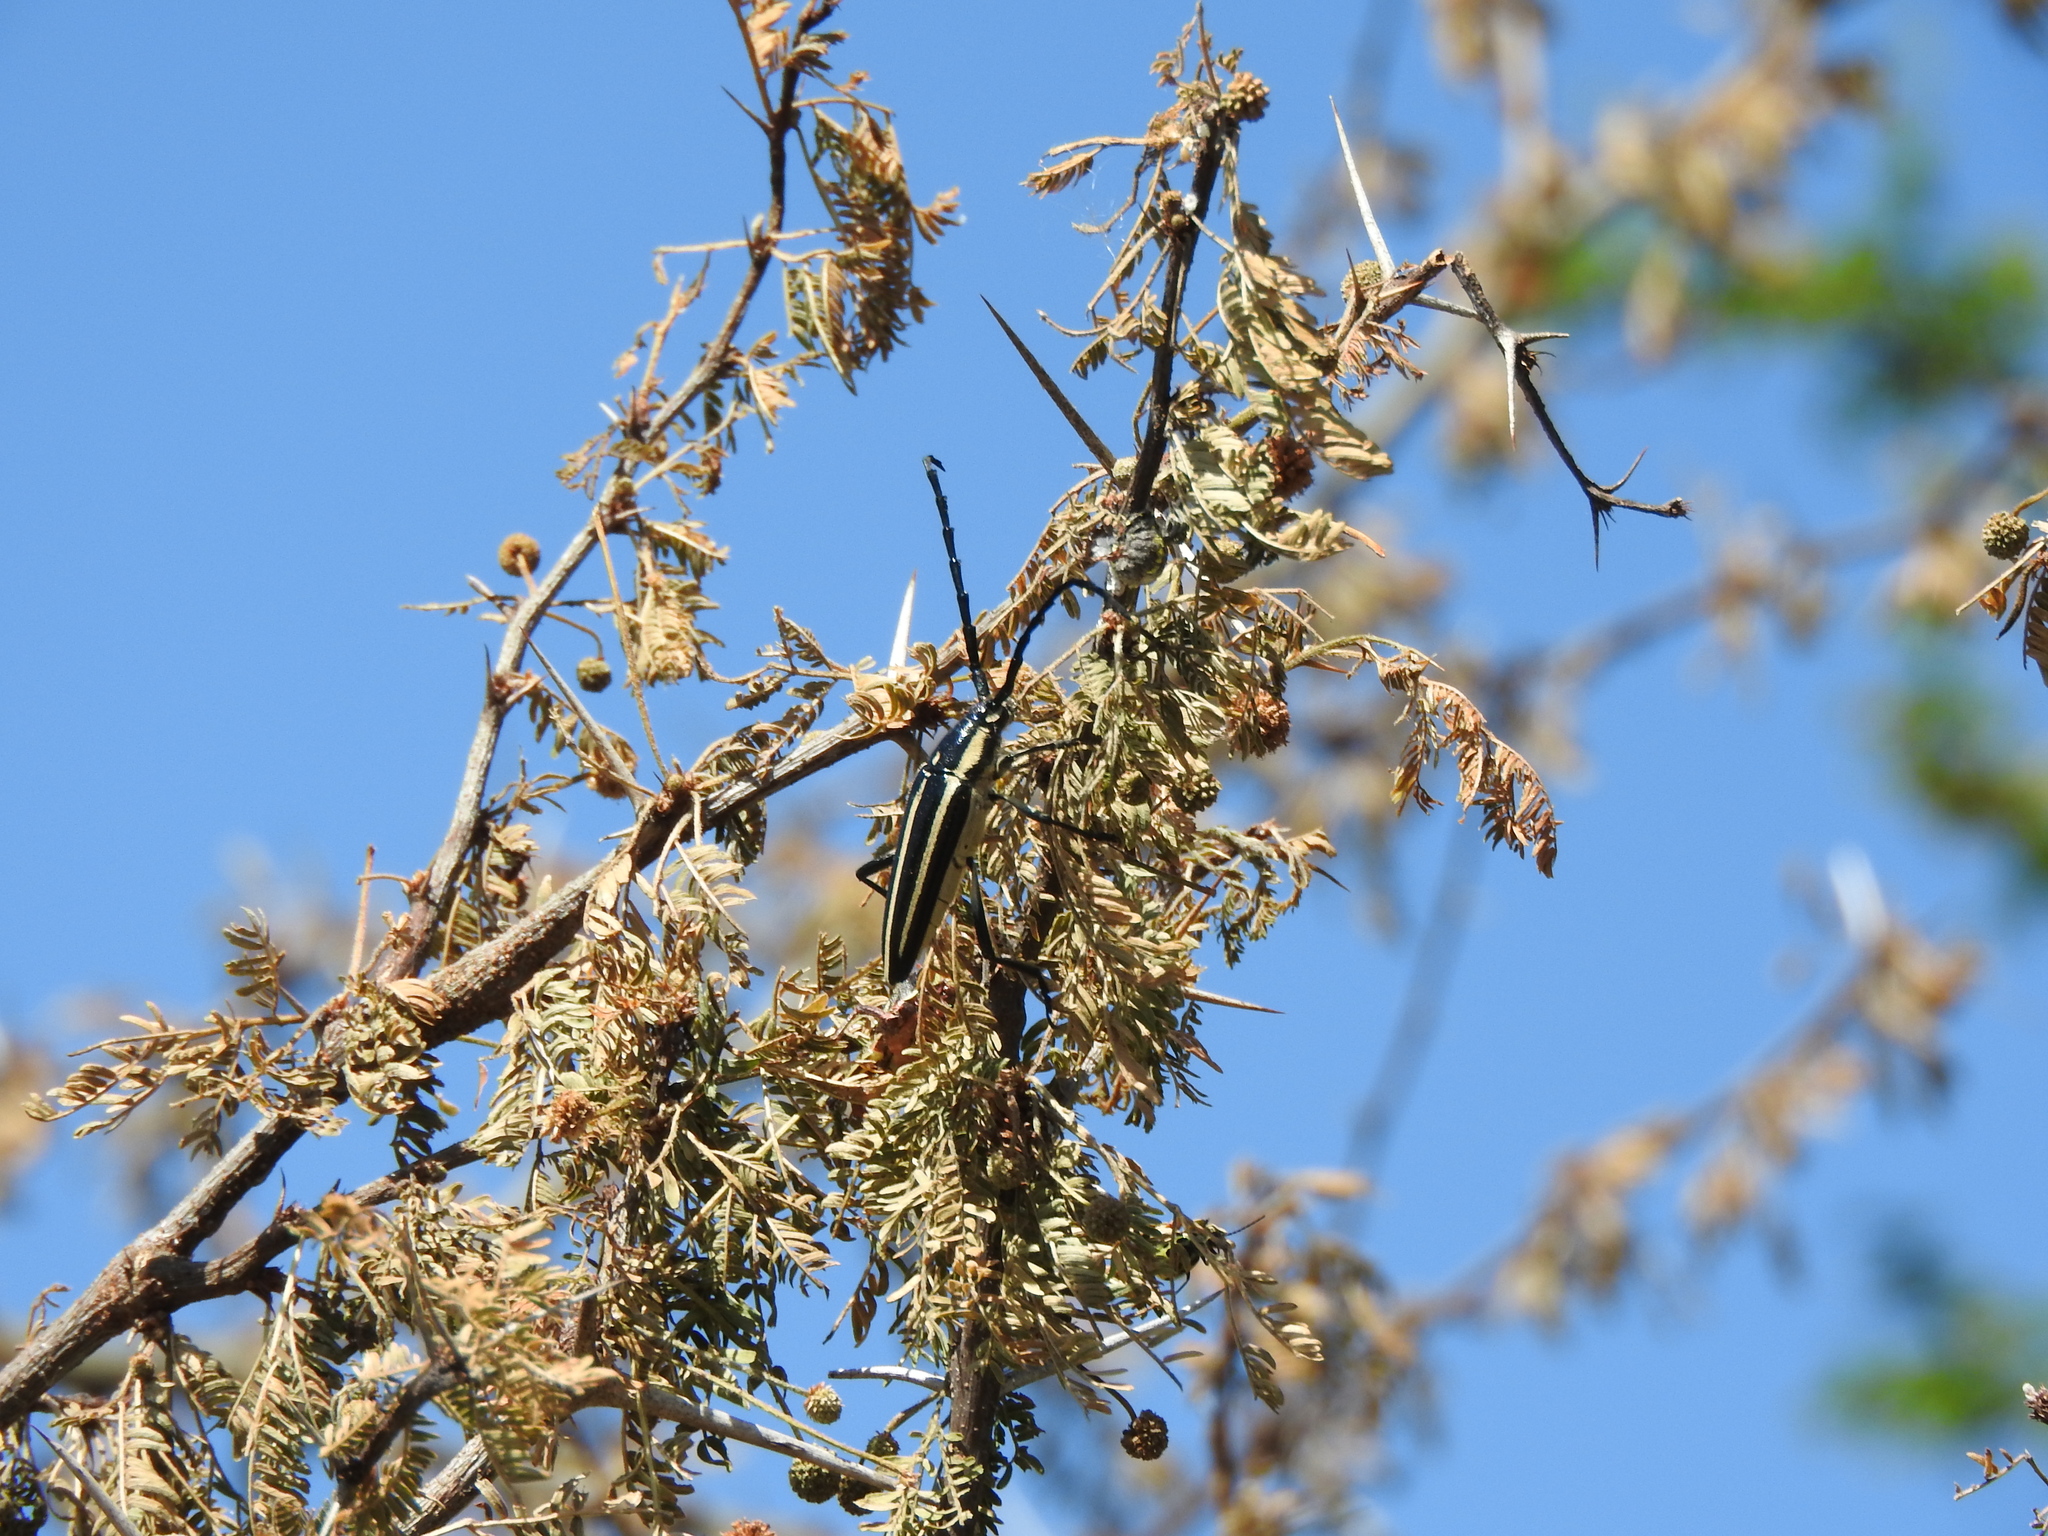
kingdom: Animalia
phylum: Arthropoda
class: Insecta
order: Coleoptera
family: Cerambycidae
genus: Sphaenothecus
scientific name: Sphaenothecus trilineatus
